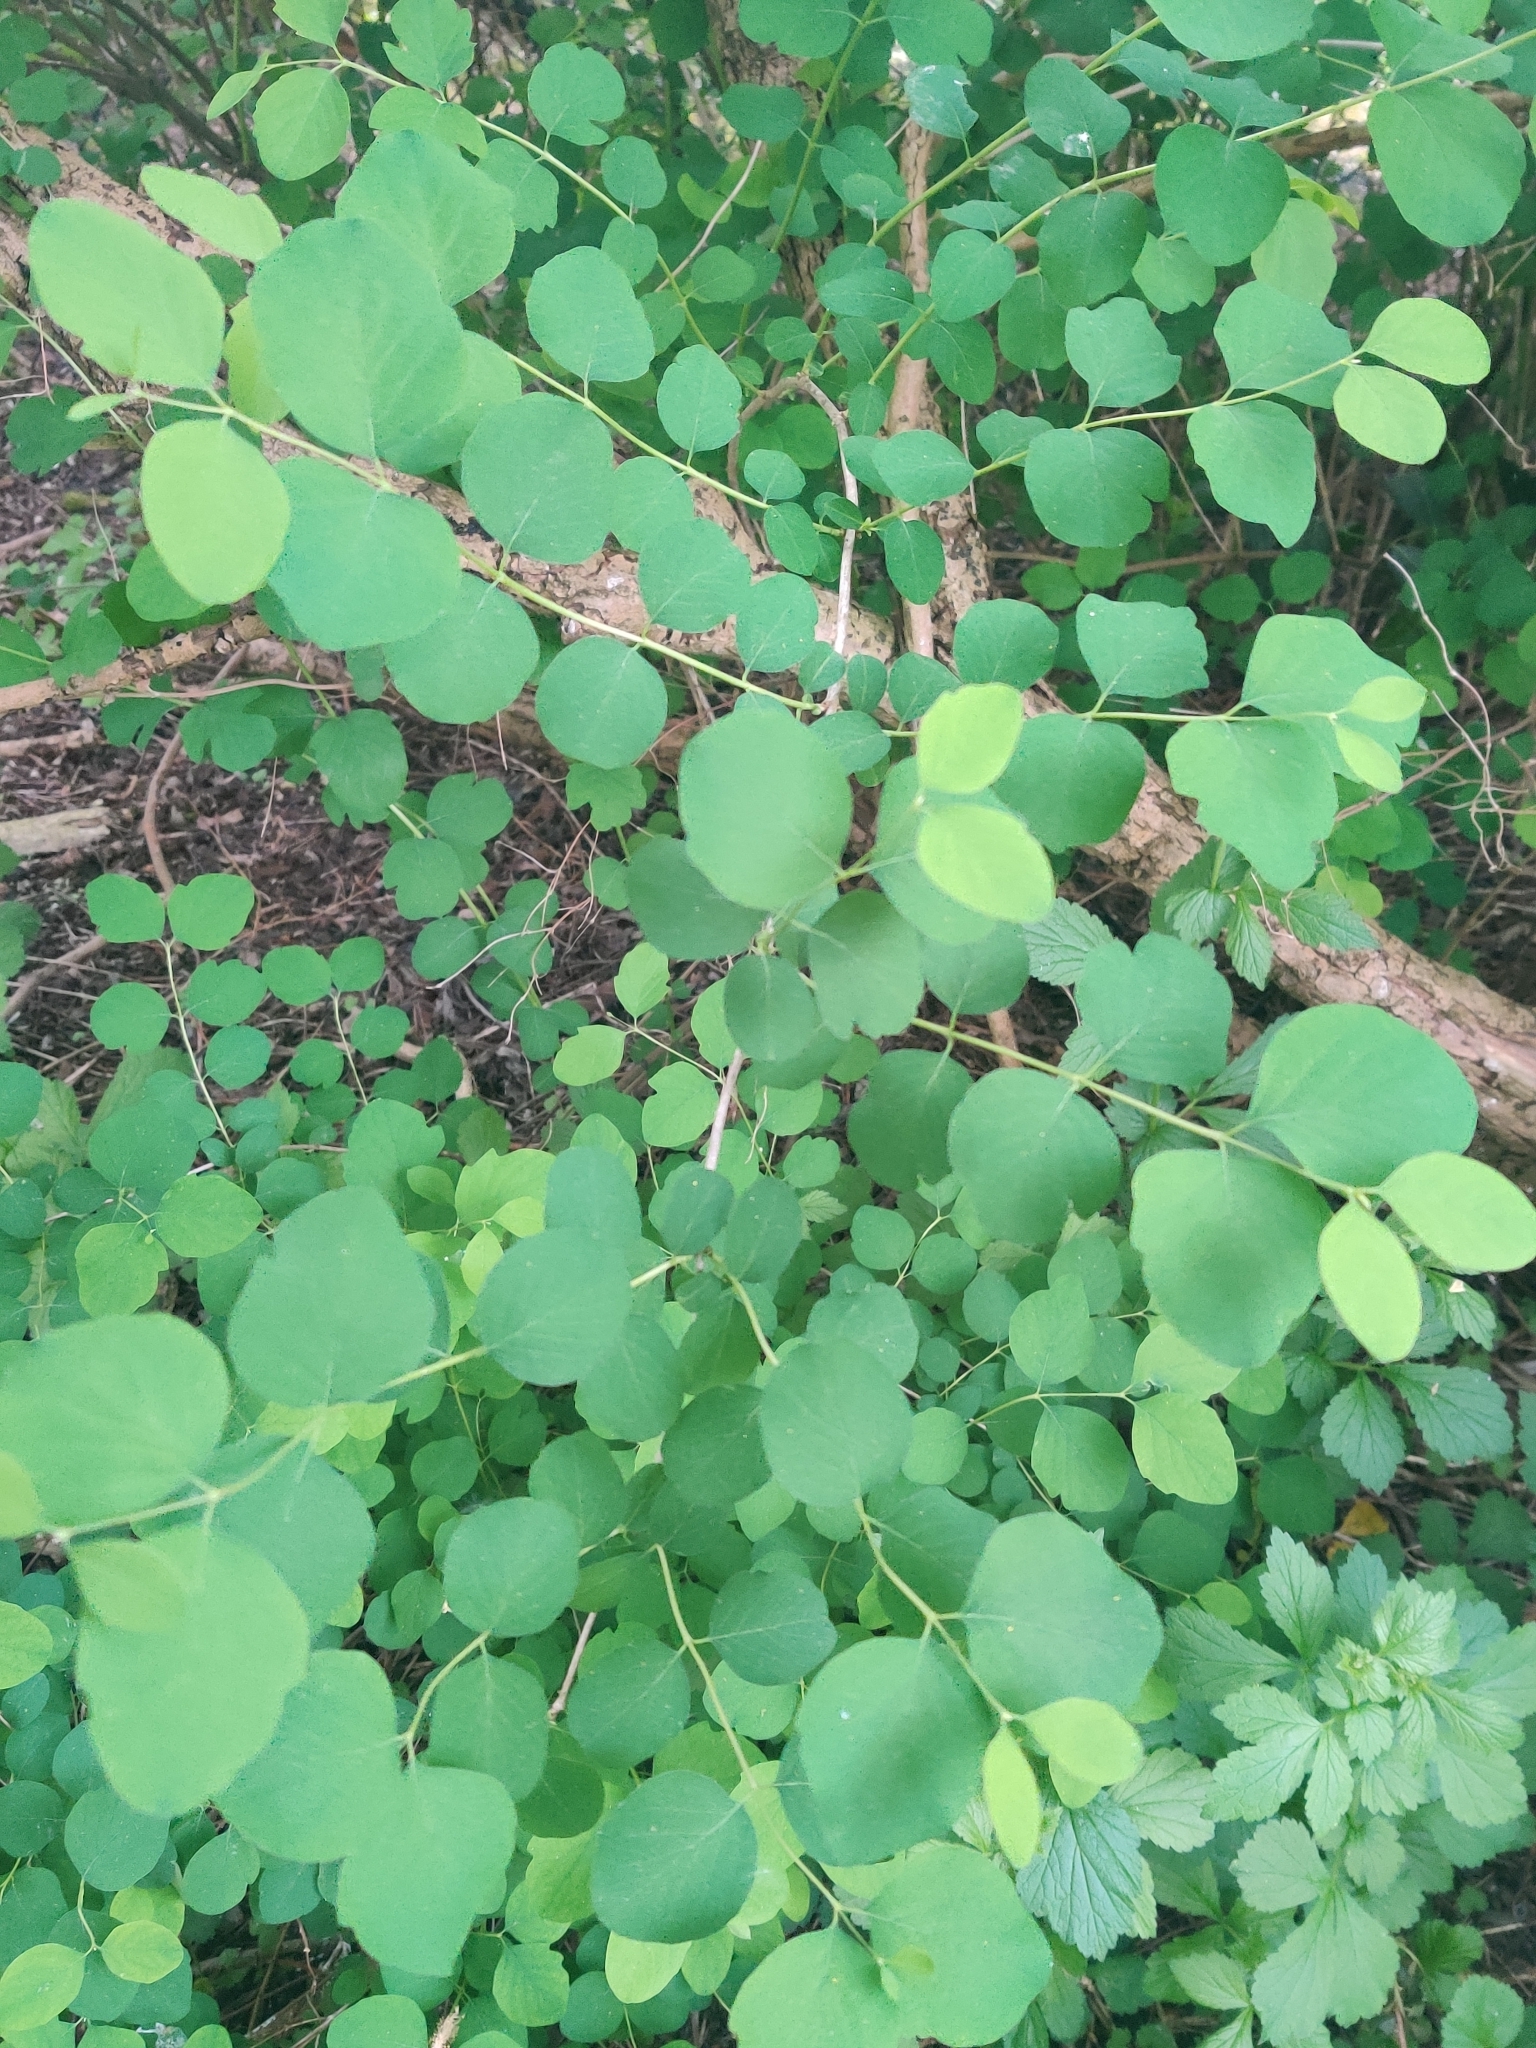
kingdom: Plantae
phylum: Tracheophyta
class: Magnoliopsida
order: Dipsacales
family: Caprifoliaceae
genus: Symphoricarpos
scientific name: Symphoricarpos albus
